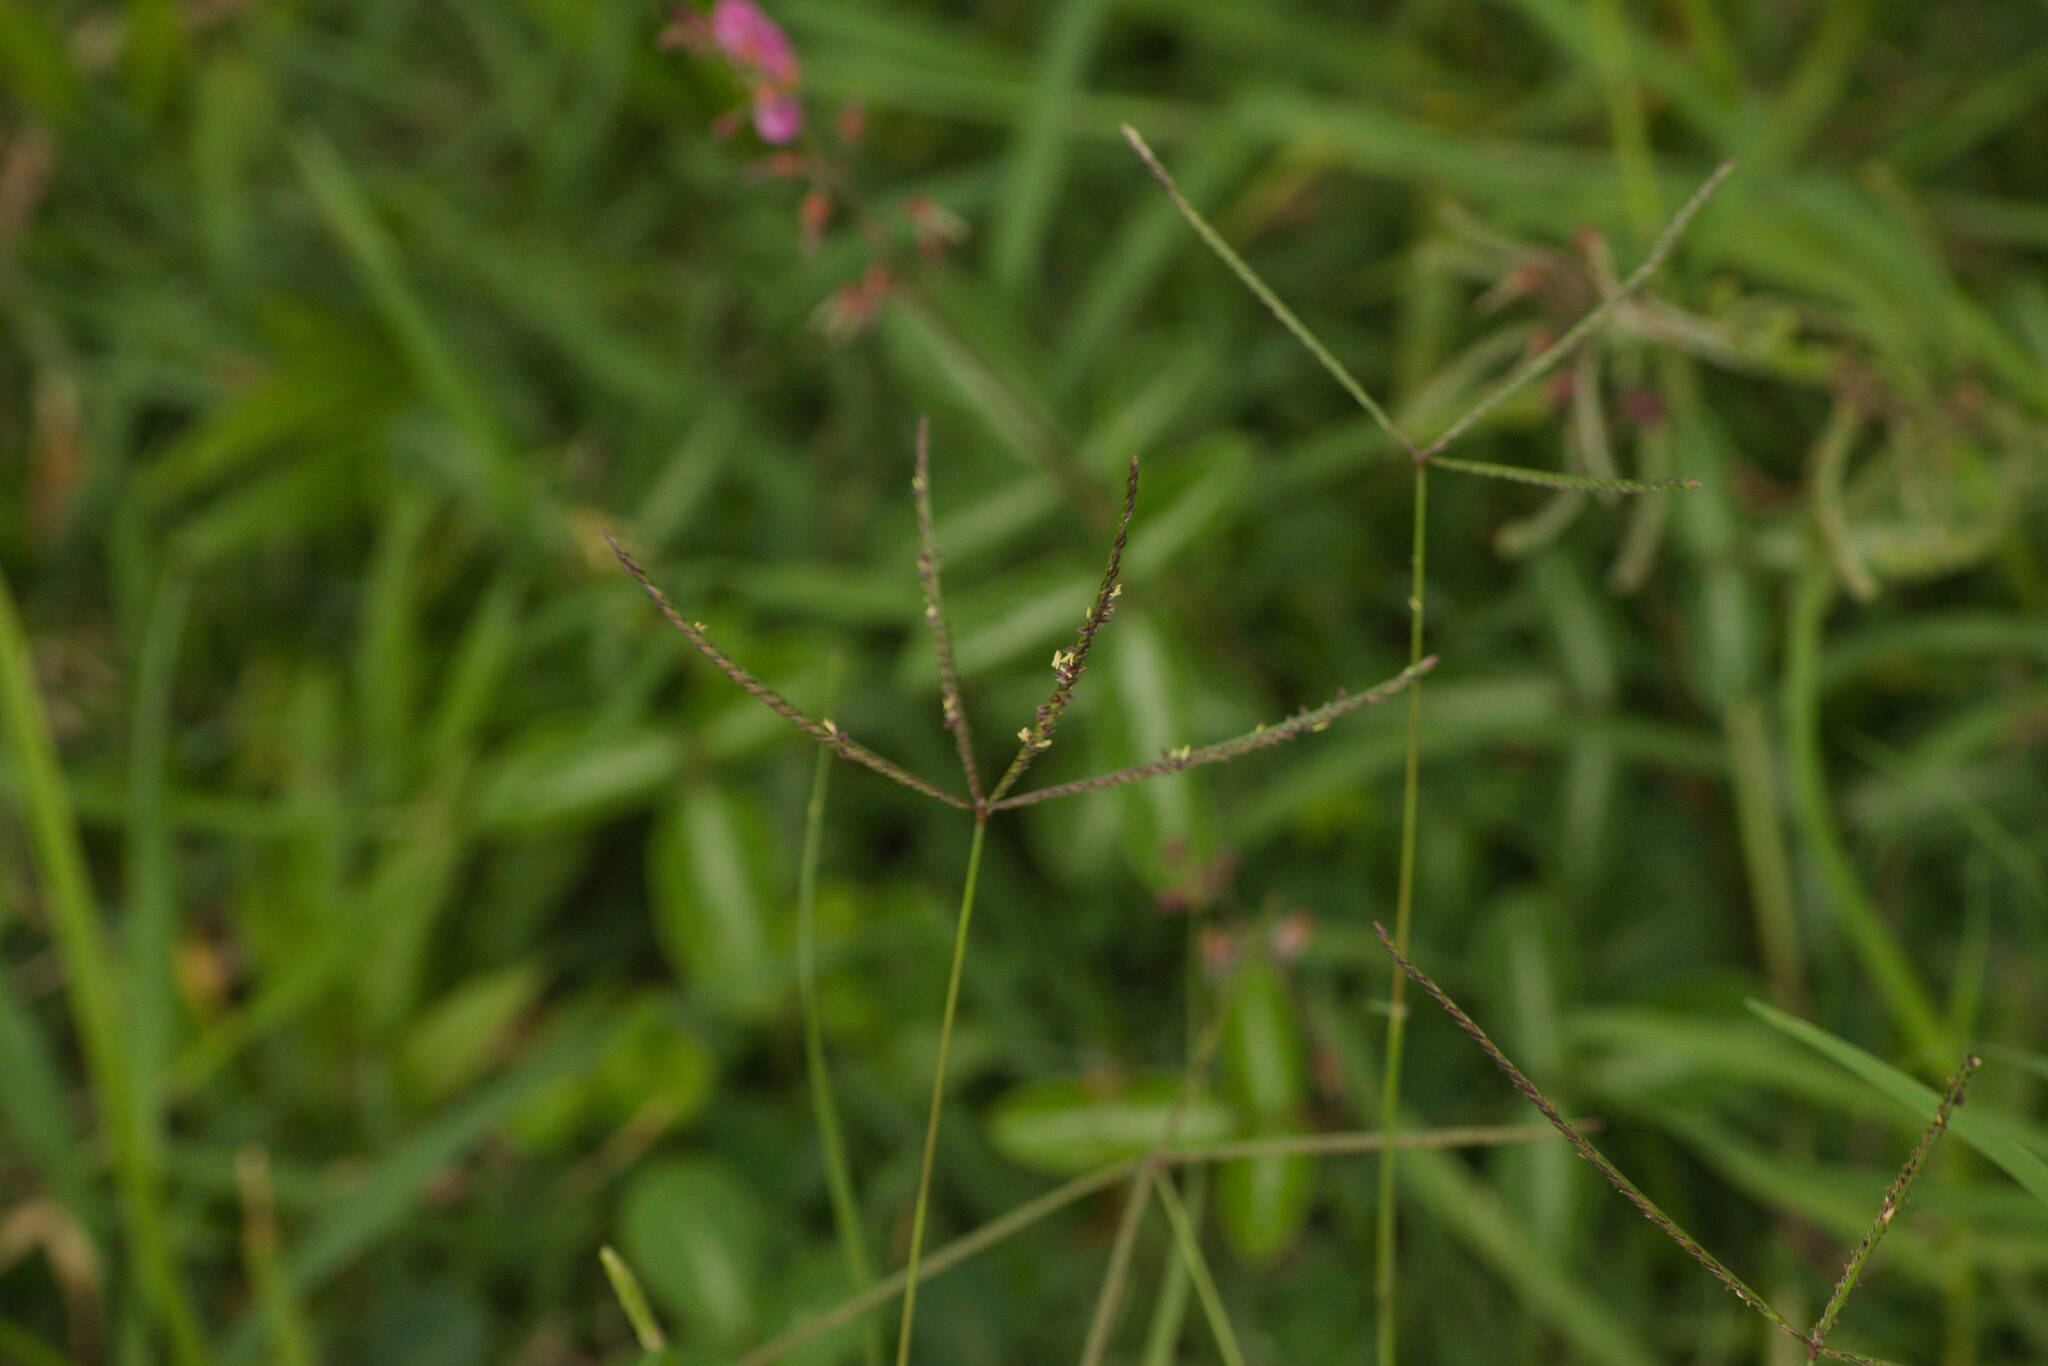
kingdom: Plantae
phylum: Tracheophyta
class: Liliopsida
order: Poales
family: Poaceae
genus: Cynodon
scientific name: Cynodon dactylon
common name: Bermuda grass
